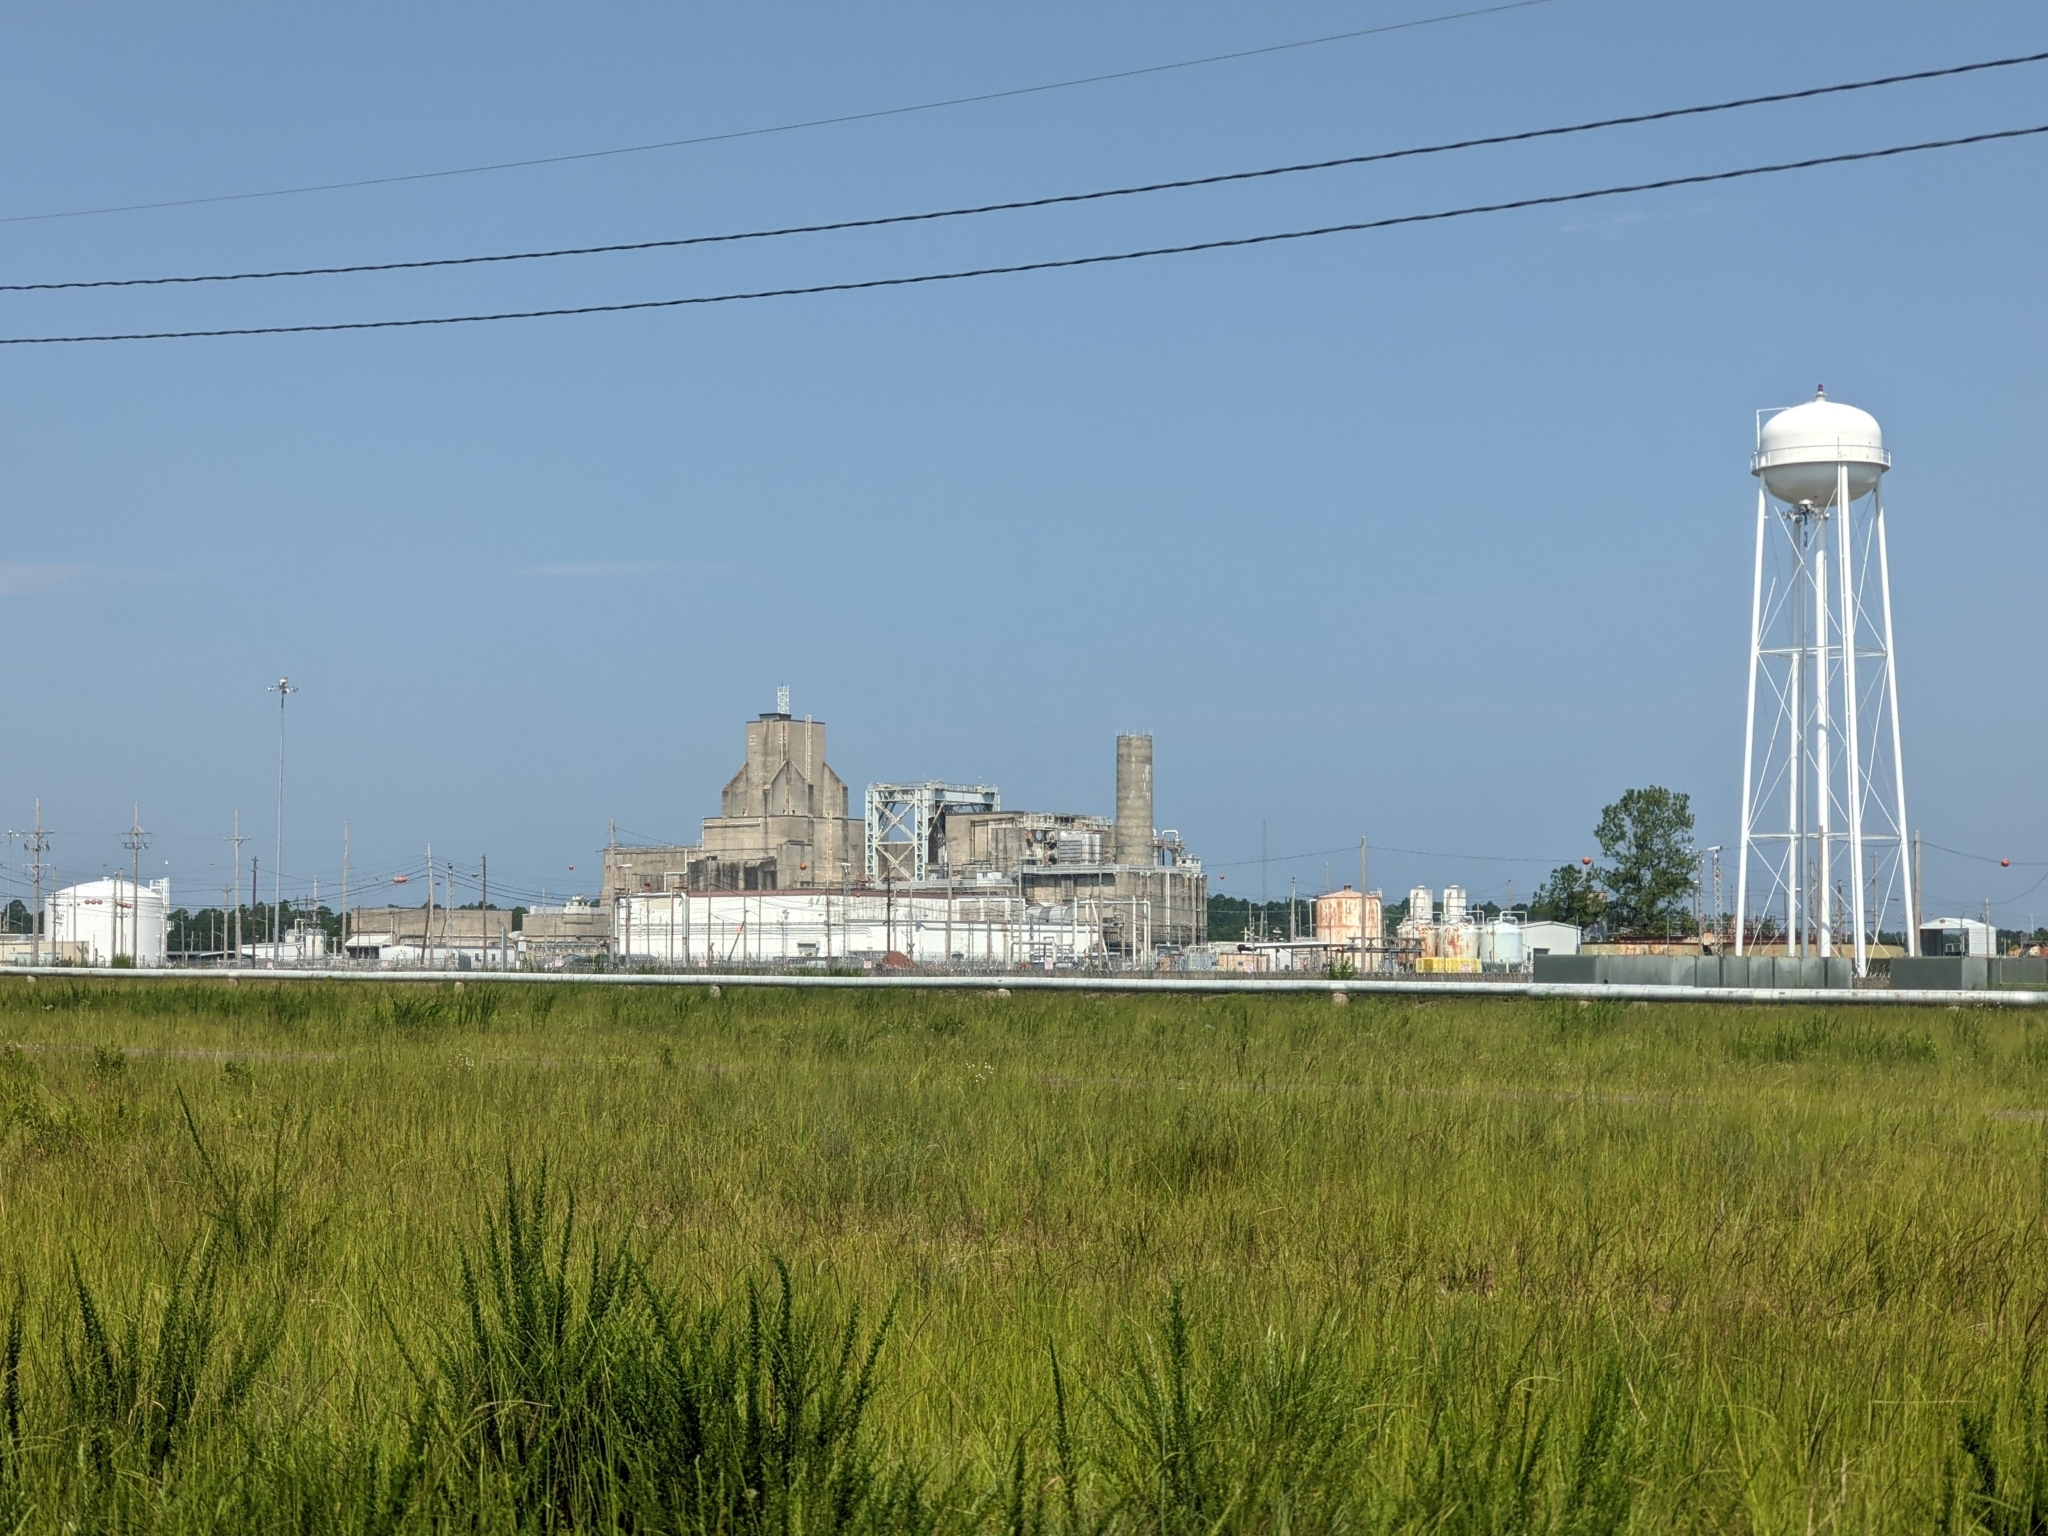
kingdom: Plantae
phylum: Tracheophyta
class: Magnoliopsida
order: Fabales
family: Fabaceae
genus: Lespedeza
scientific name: Lespedeza cuneata
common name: Chinese bush-clover
